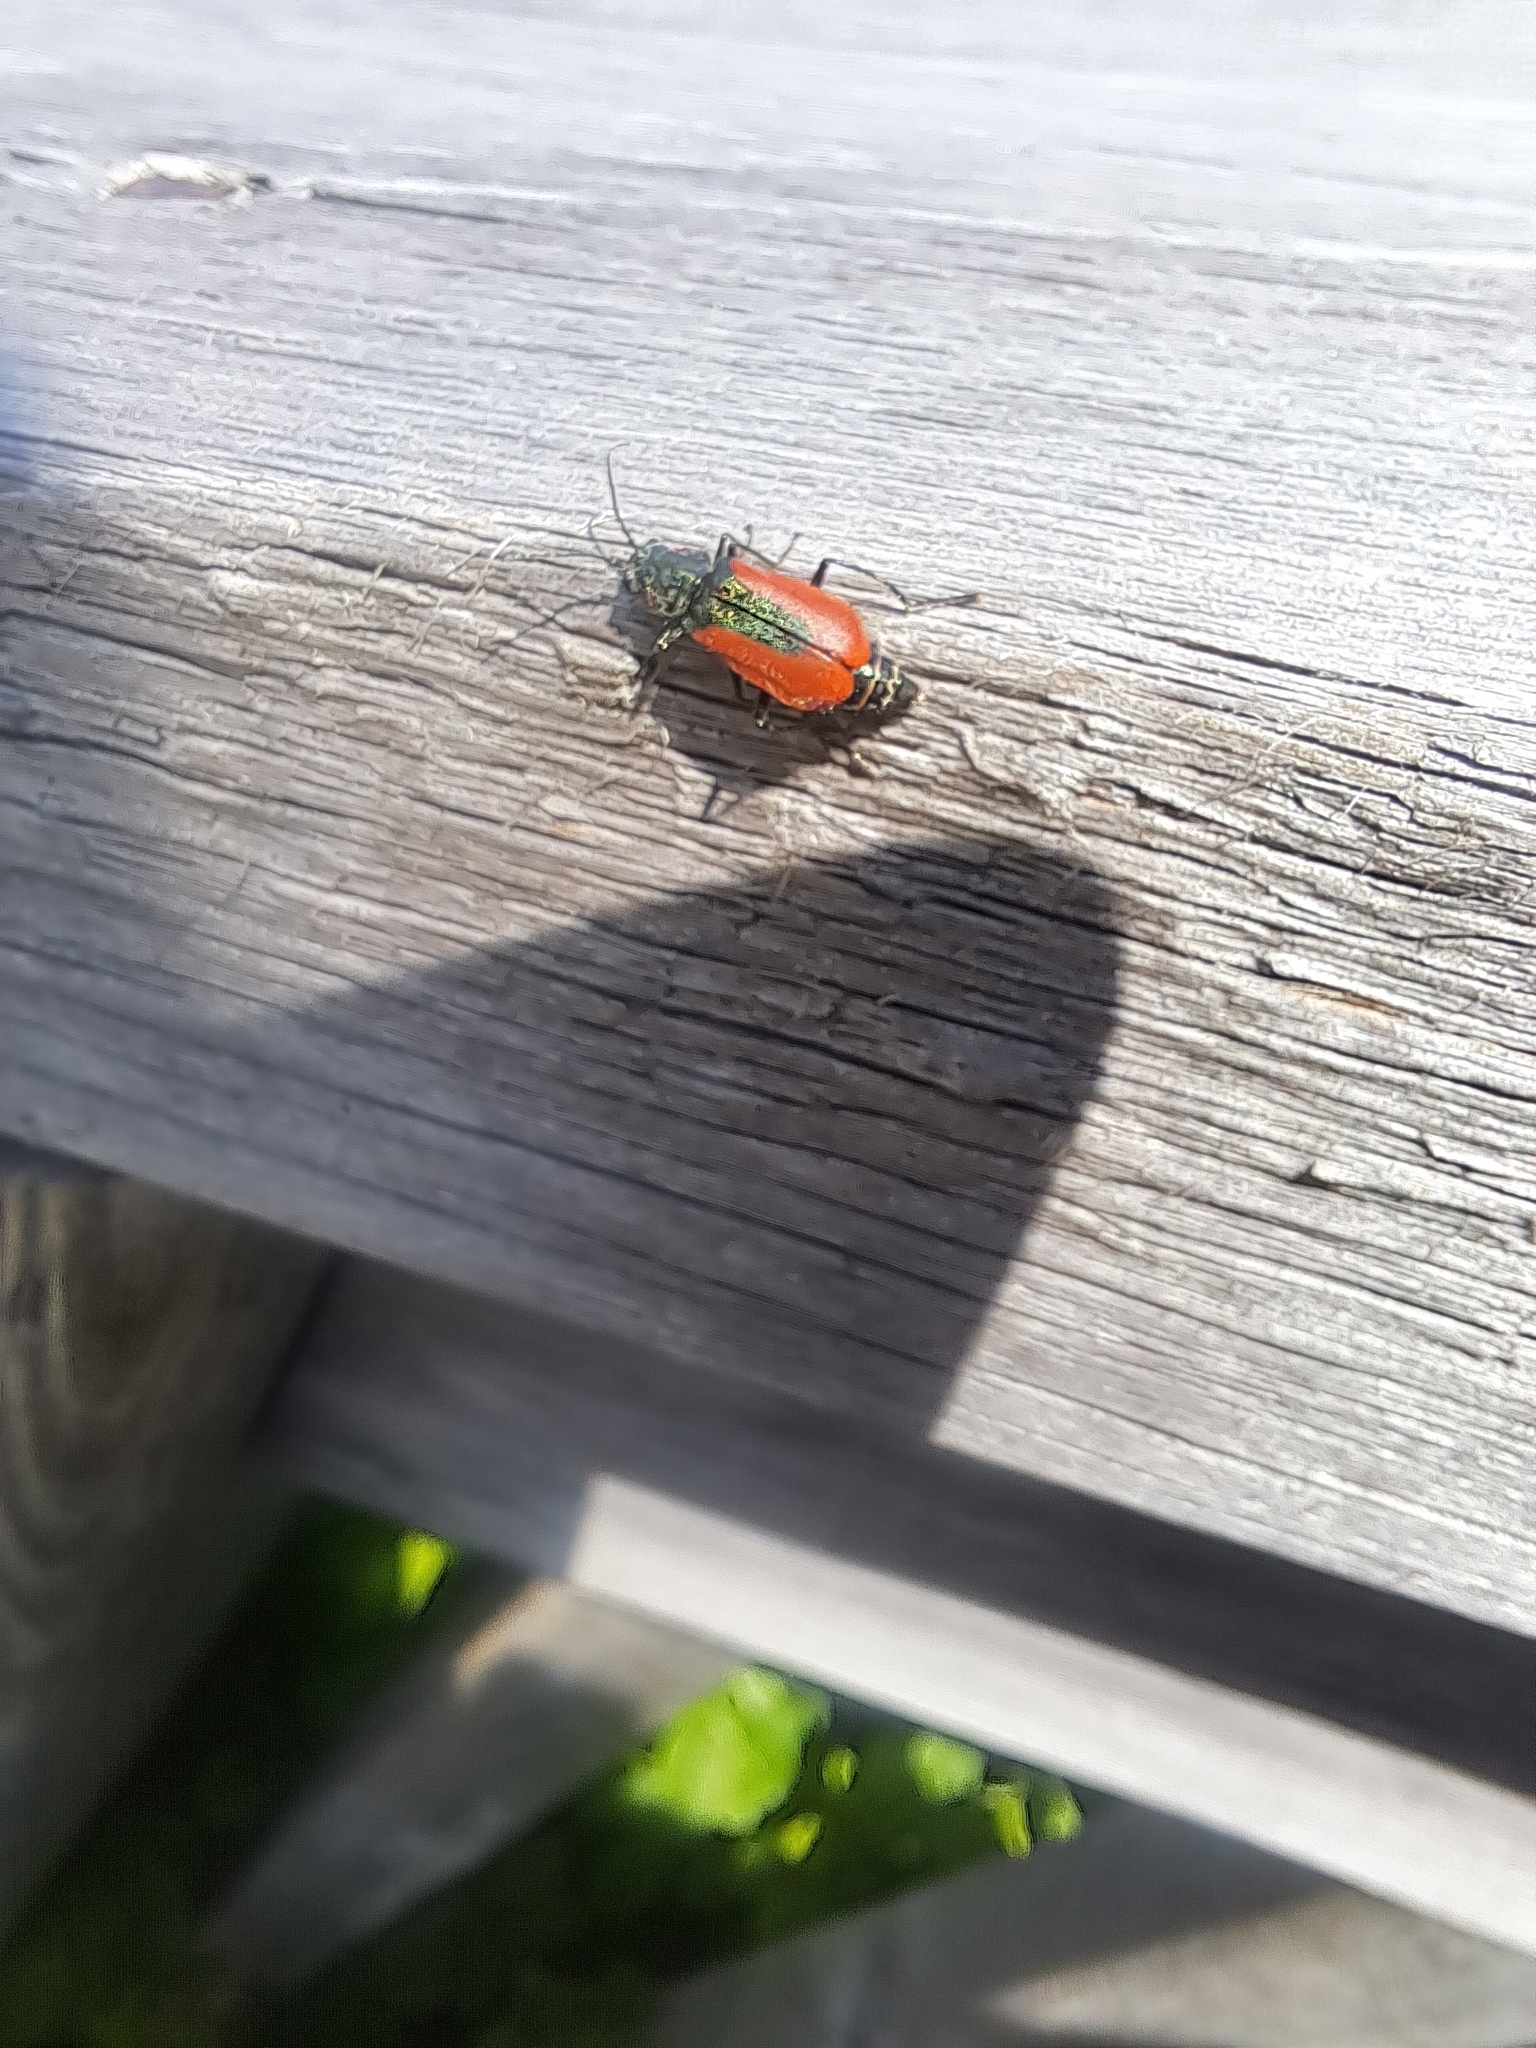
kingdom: Animalia
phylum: Arthropoda
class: Insecta
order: Coleoptera
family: Melyridae
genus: Malachius
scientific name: Malachius aeneus
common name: Scarlet malachite beetle
